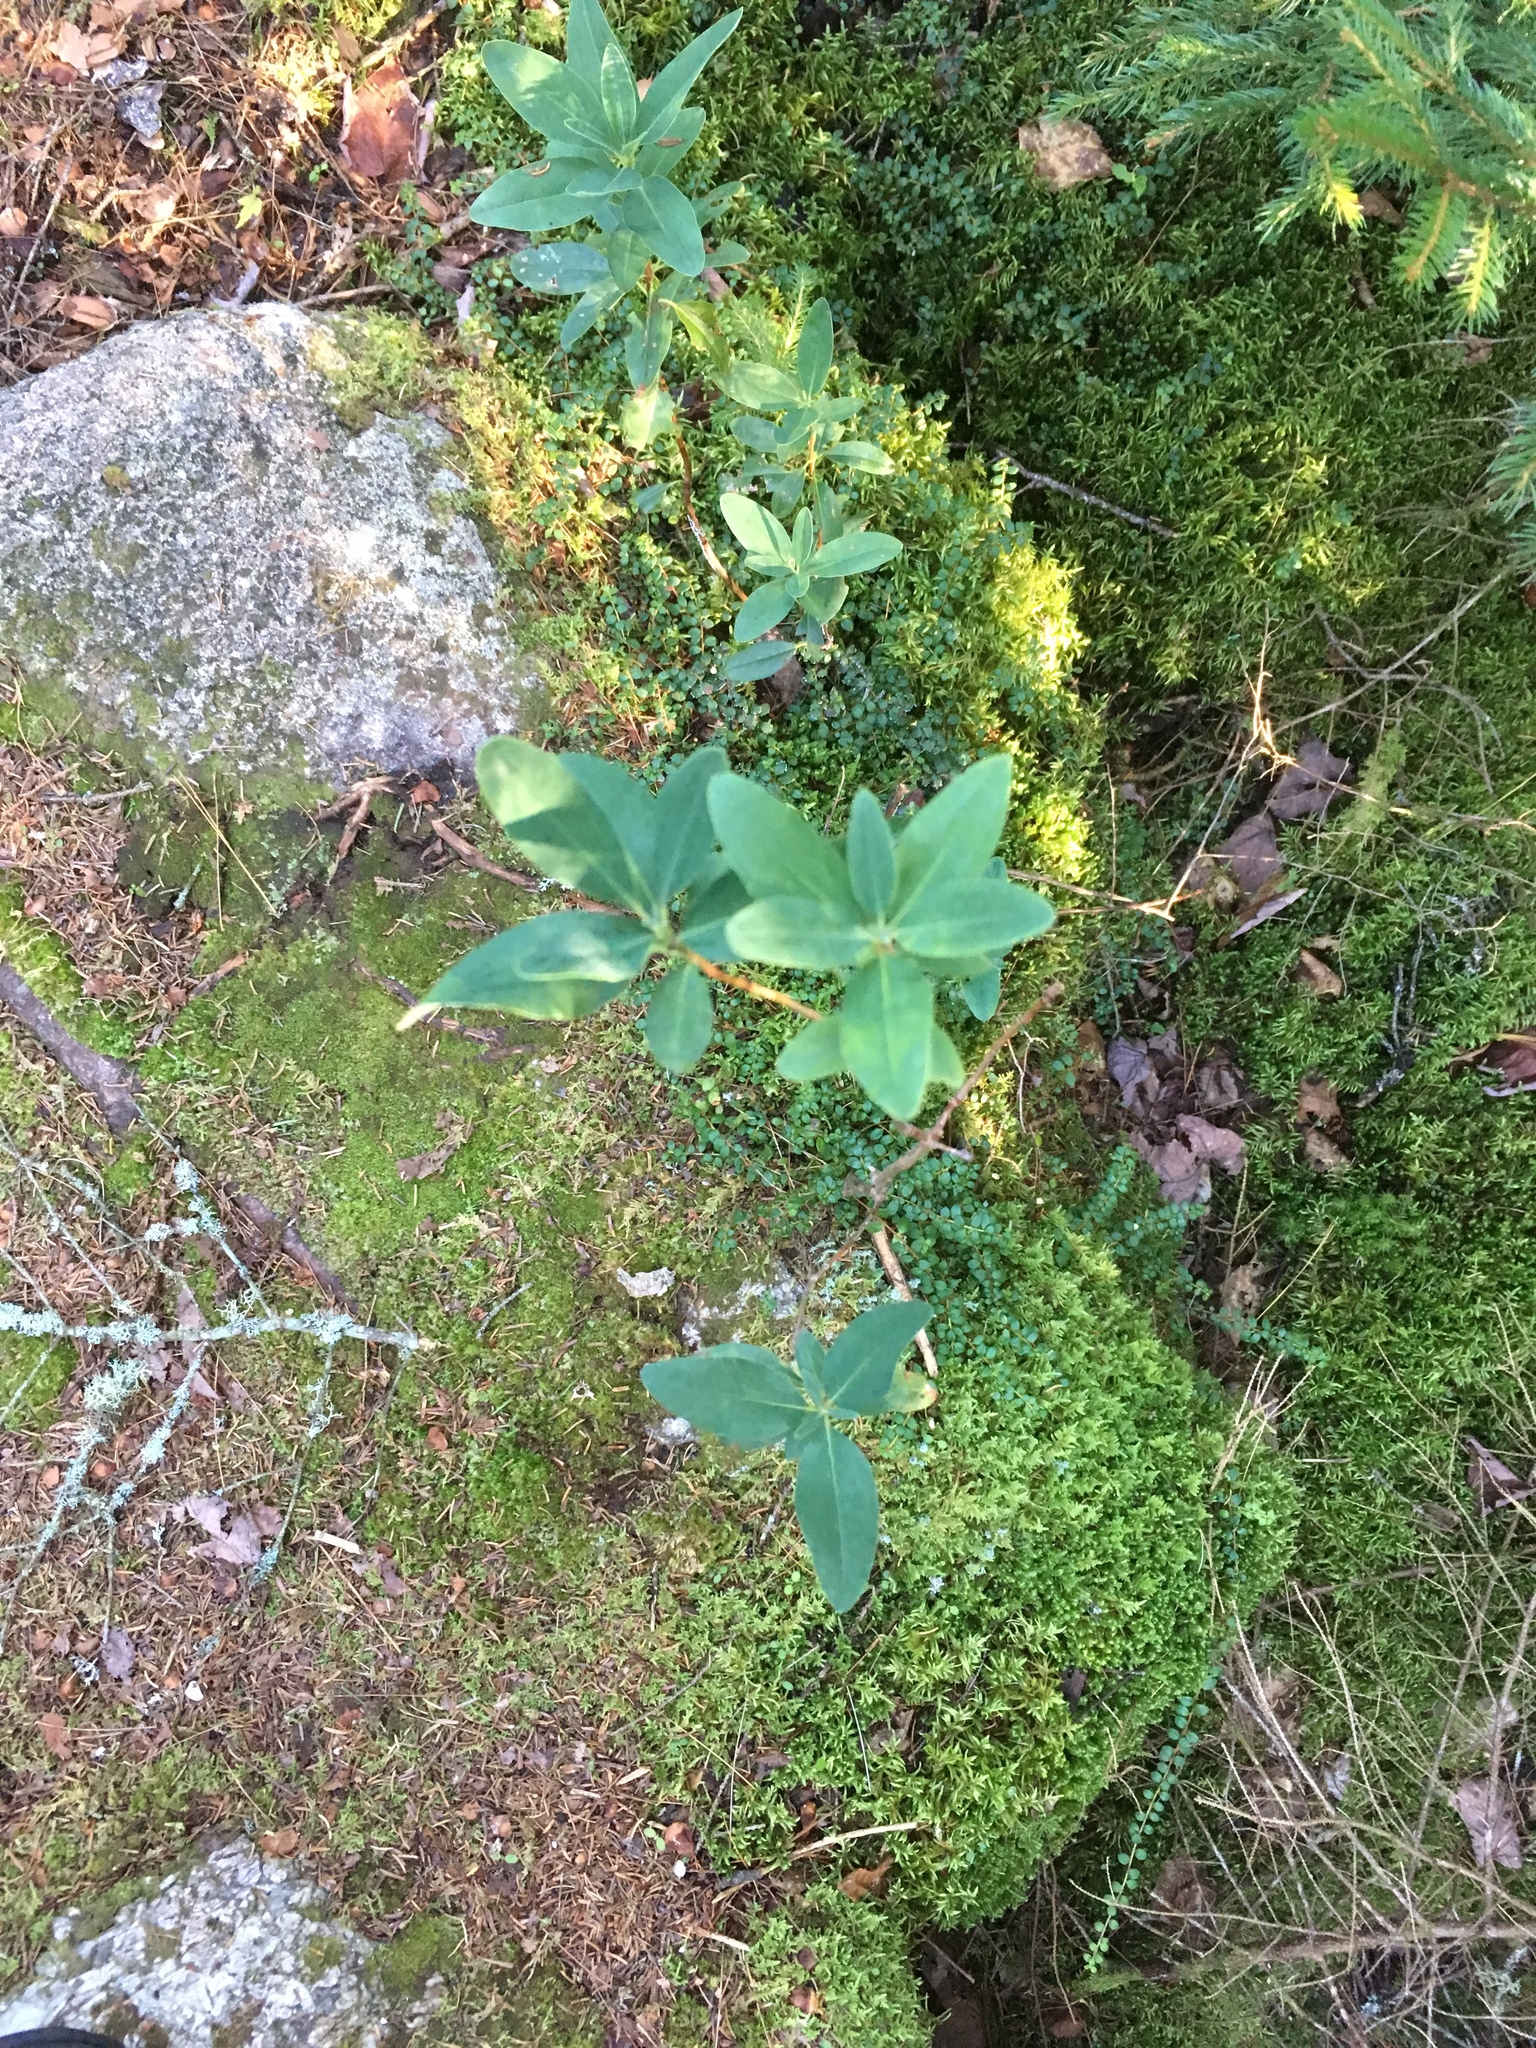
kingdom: Plantae
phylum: Tracheophyta
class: Magnoliopsida
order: Ericales
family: Ericaceae
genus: Kalmia
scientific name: Kalmia angustifolia
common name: Sheep-laurel
